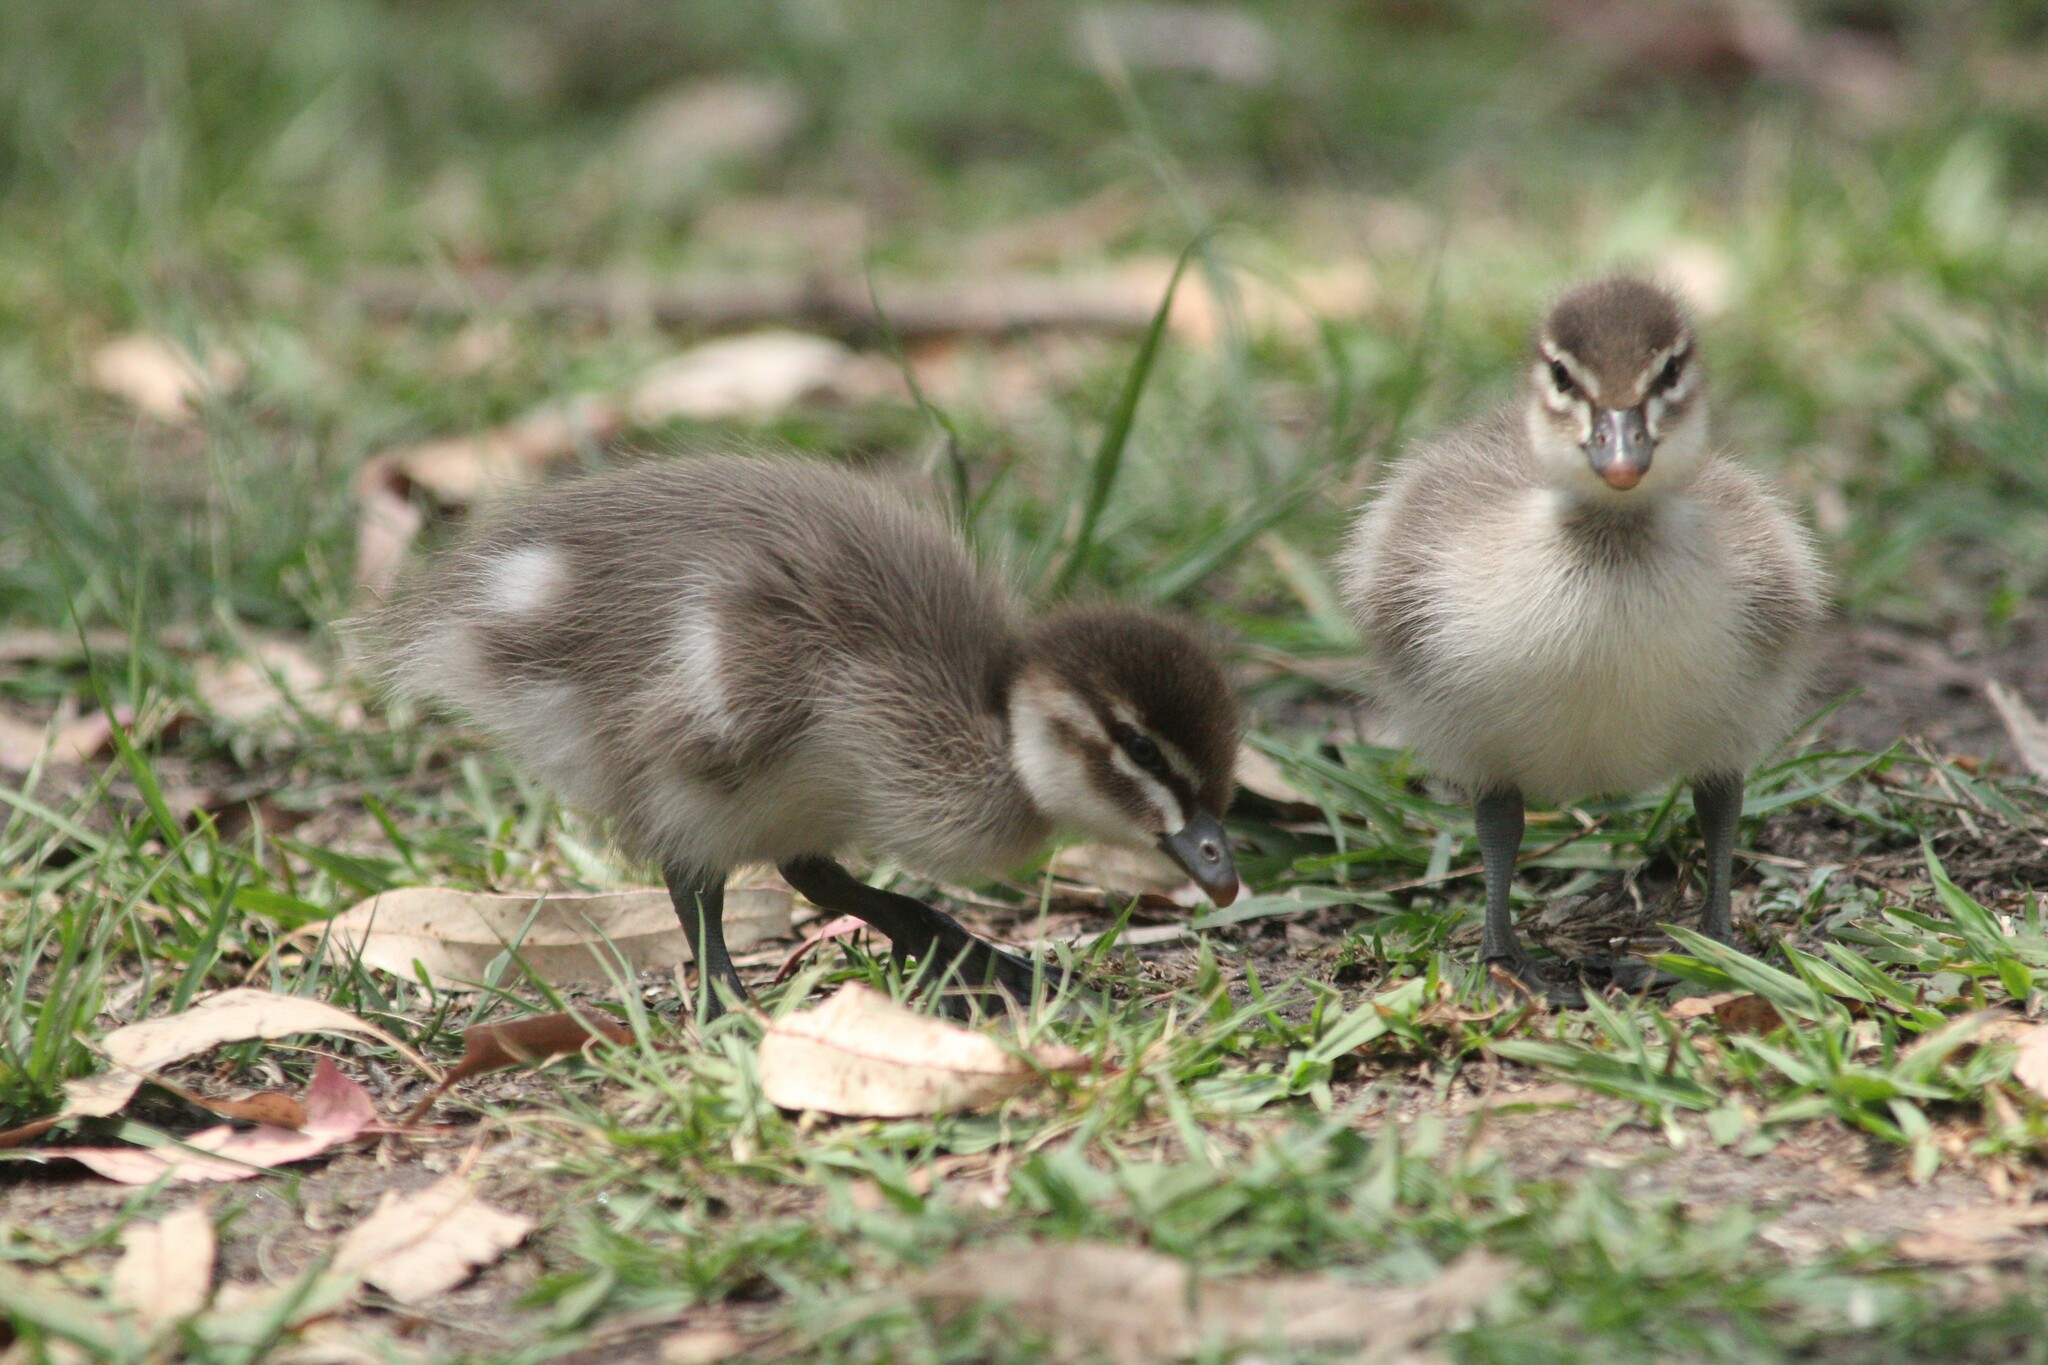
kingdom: Animalia
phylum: Chordata
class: Aves
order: Anseriformes
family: Anatidae
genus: Chenonetta
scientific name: Chenonetta jubata
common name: Maned duck
